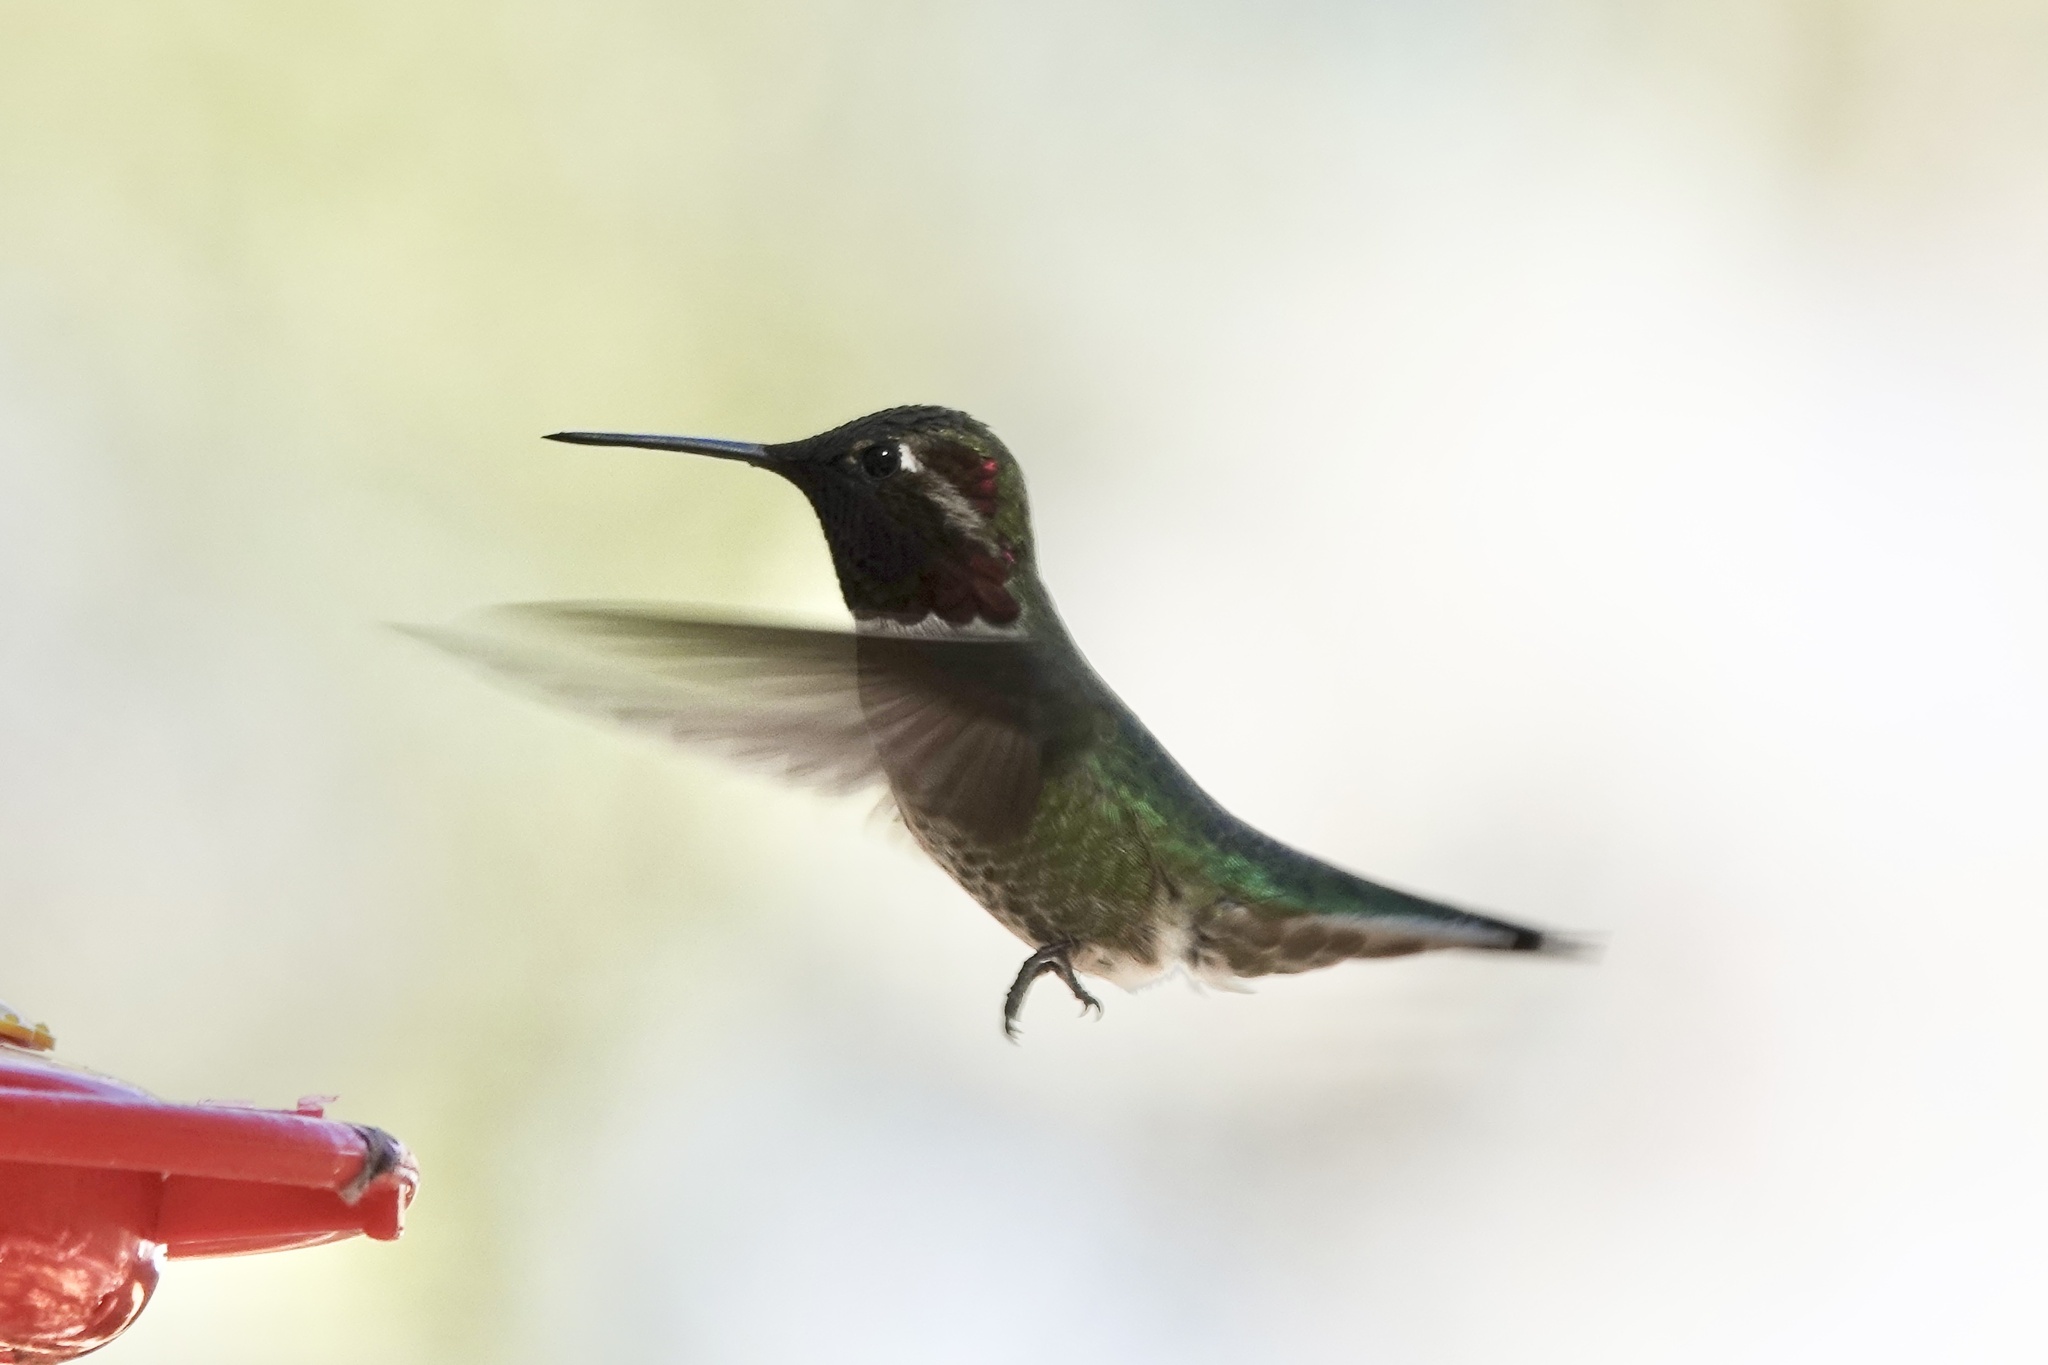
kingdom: Animalia
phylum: Chordata
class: Aves
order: Apodiformes
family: Trochilidae
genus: Calypte
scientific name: Calypte anna
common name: Anna's hummingbird
